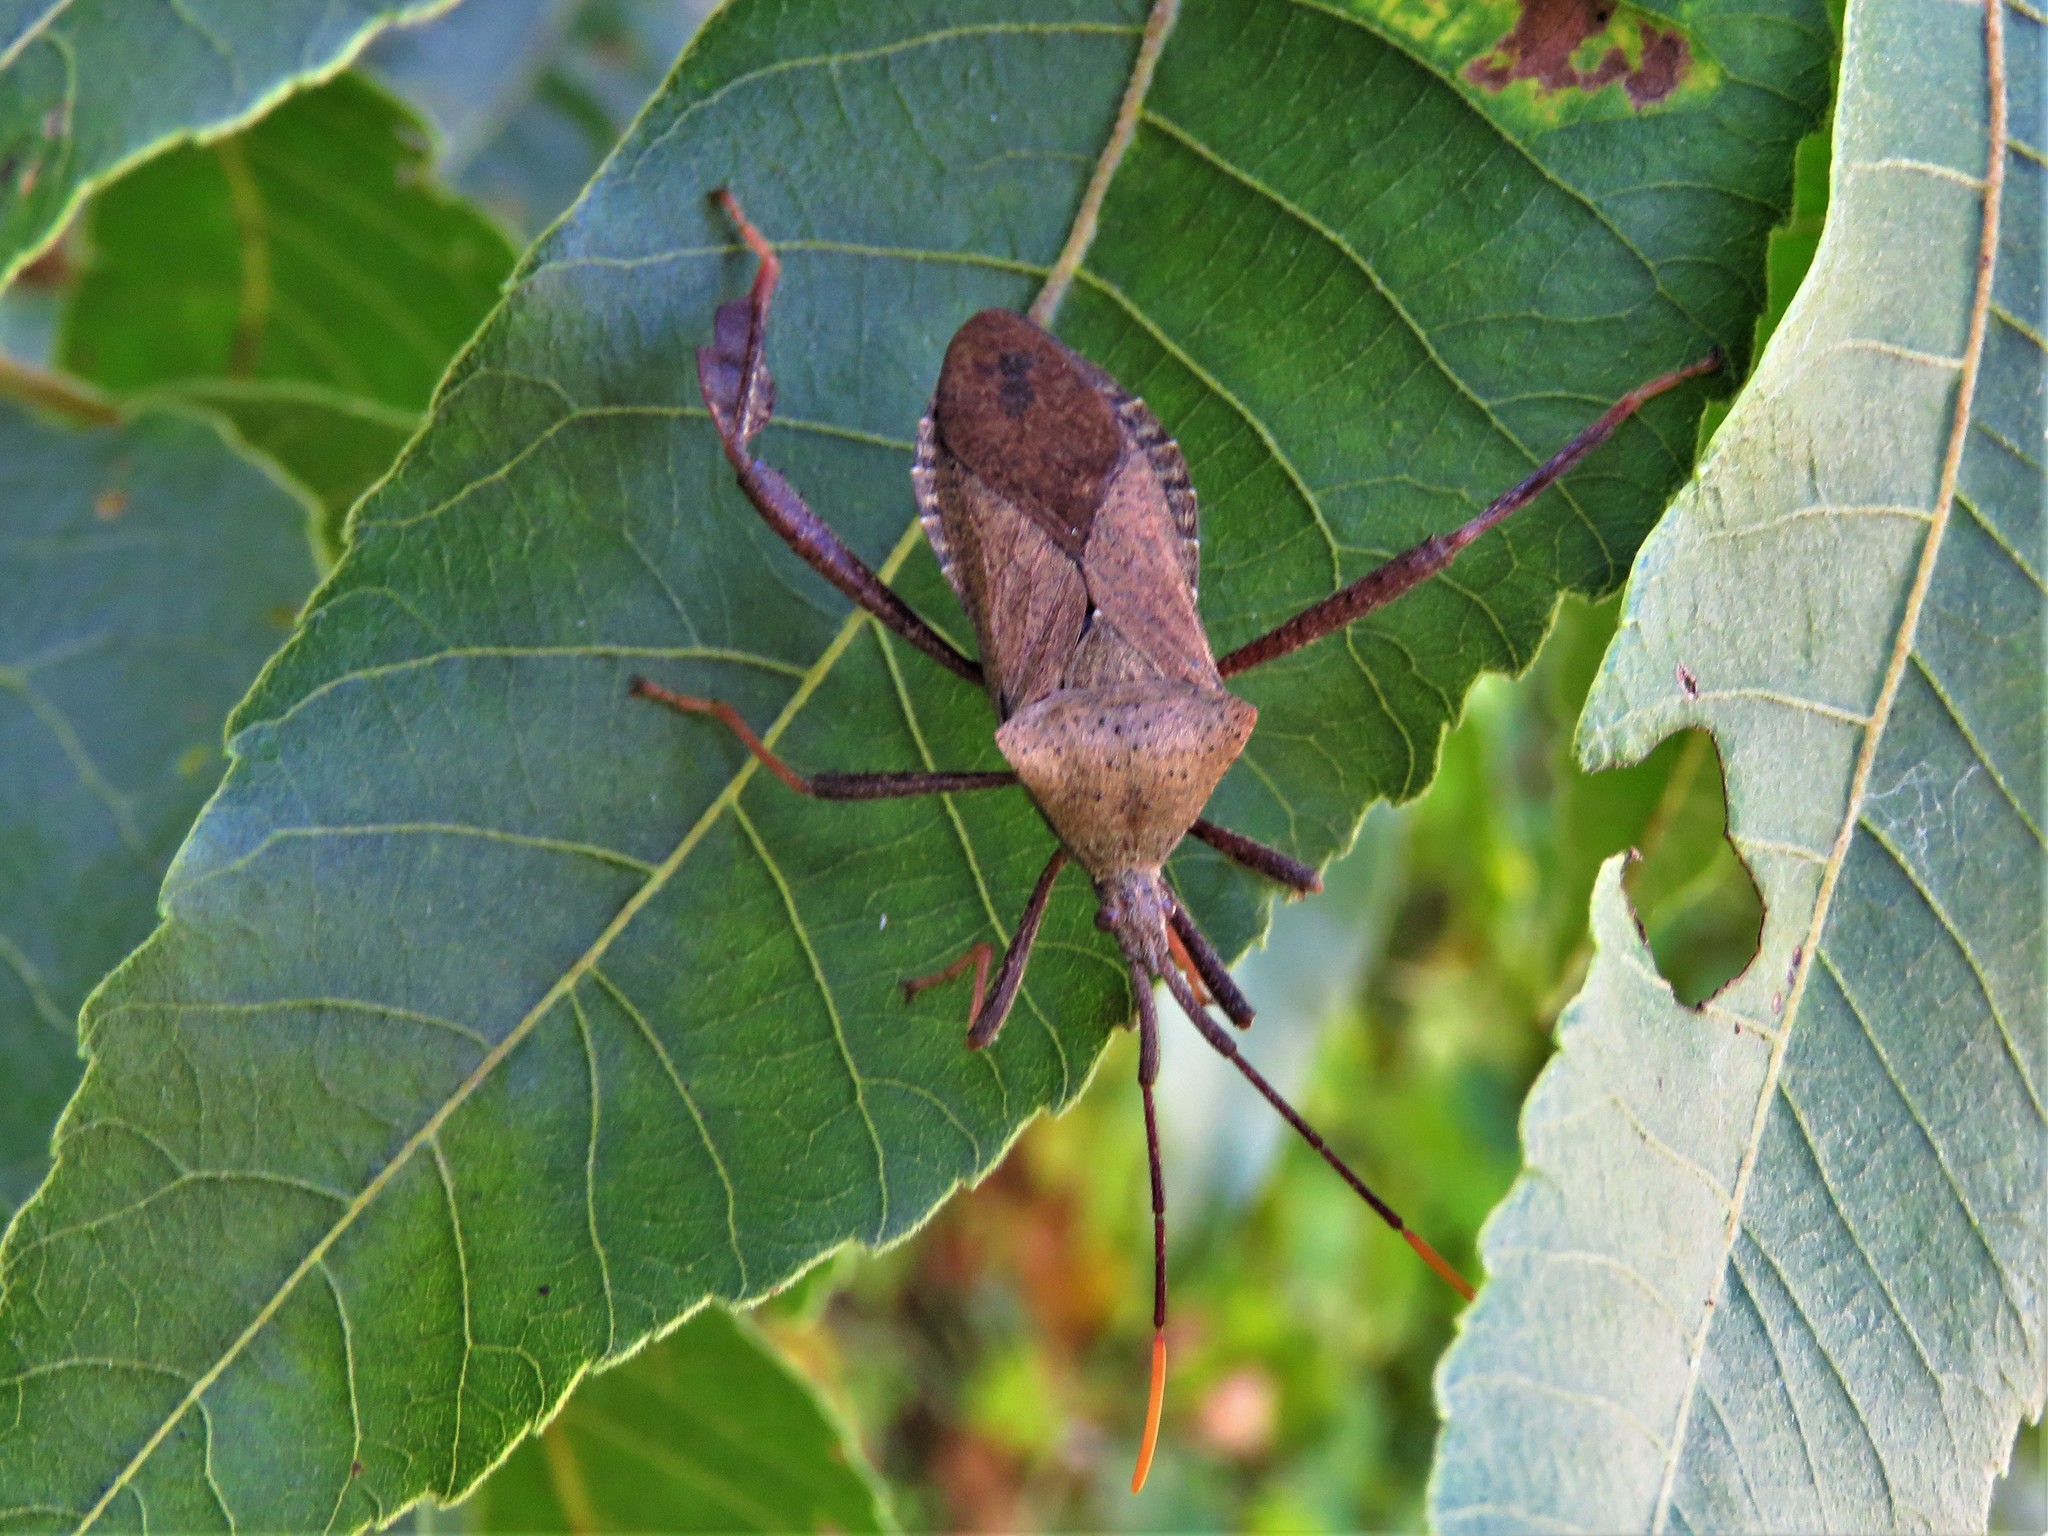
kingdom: Animalia
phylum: Arthropoda
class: Insecta
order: Hemiptera
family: Coreidae
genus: Acanthocephala
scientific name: Acanthocephala terminalis
